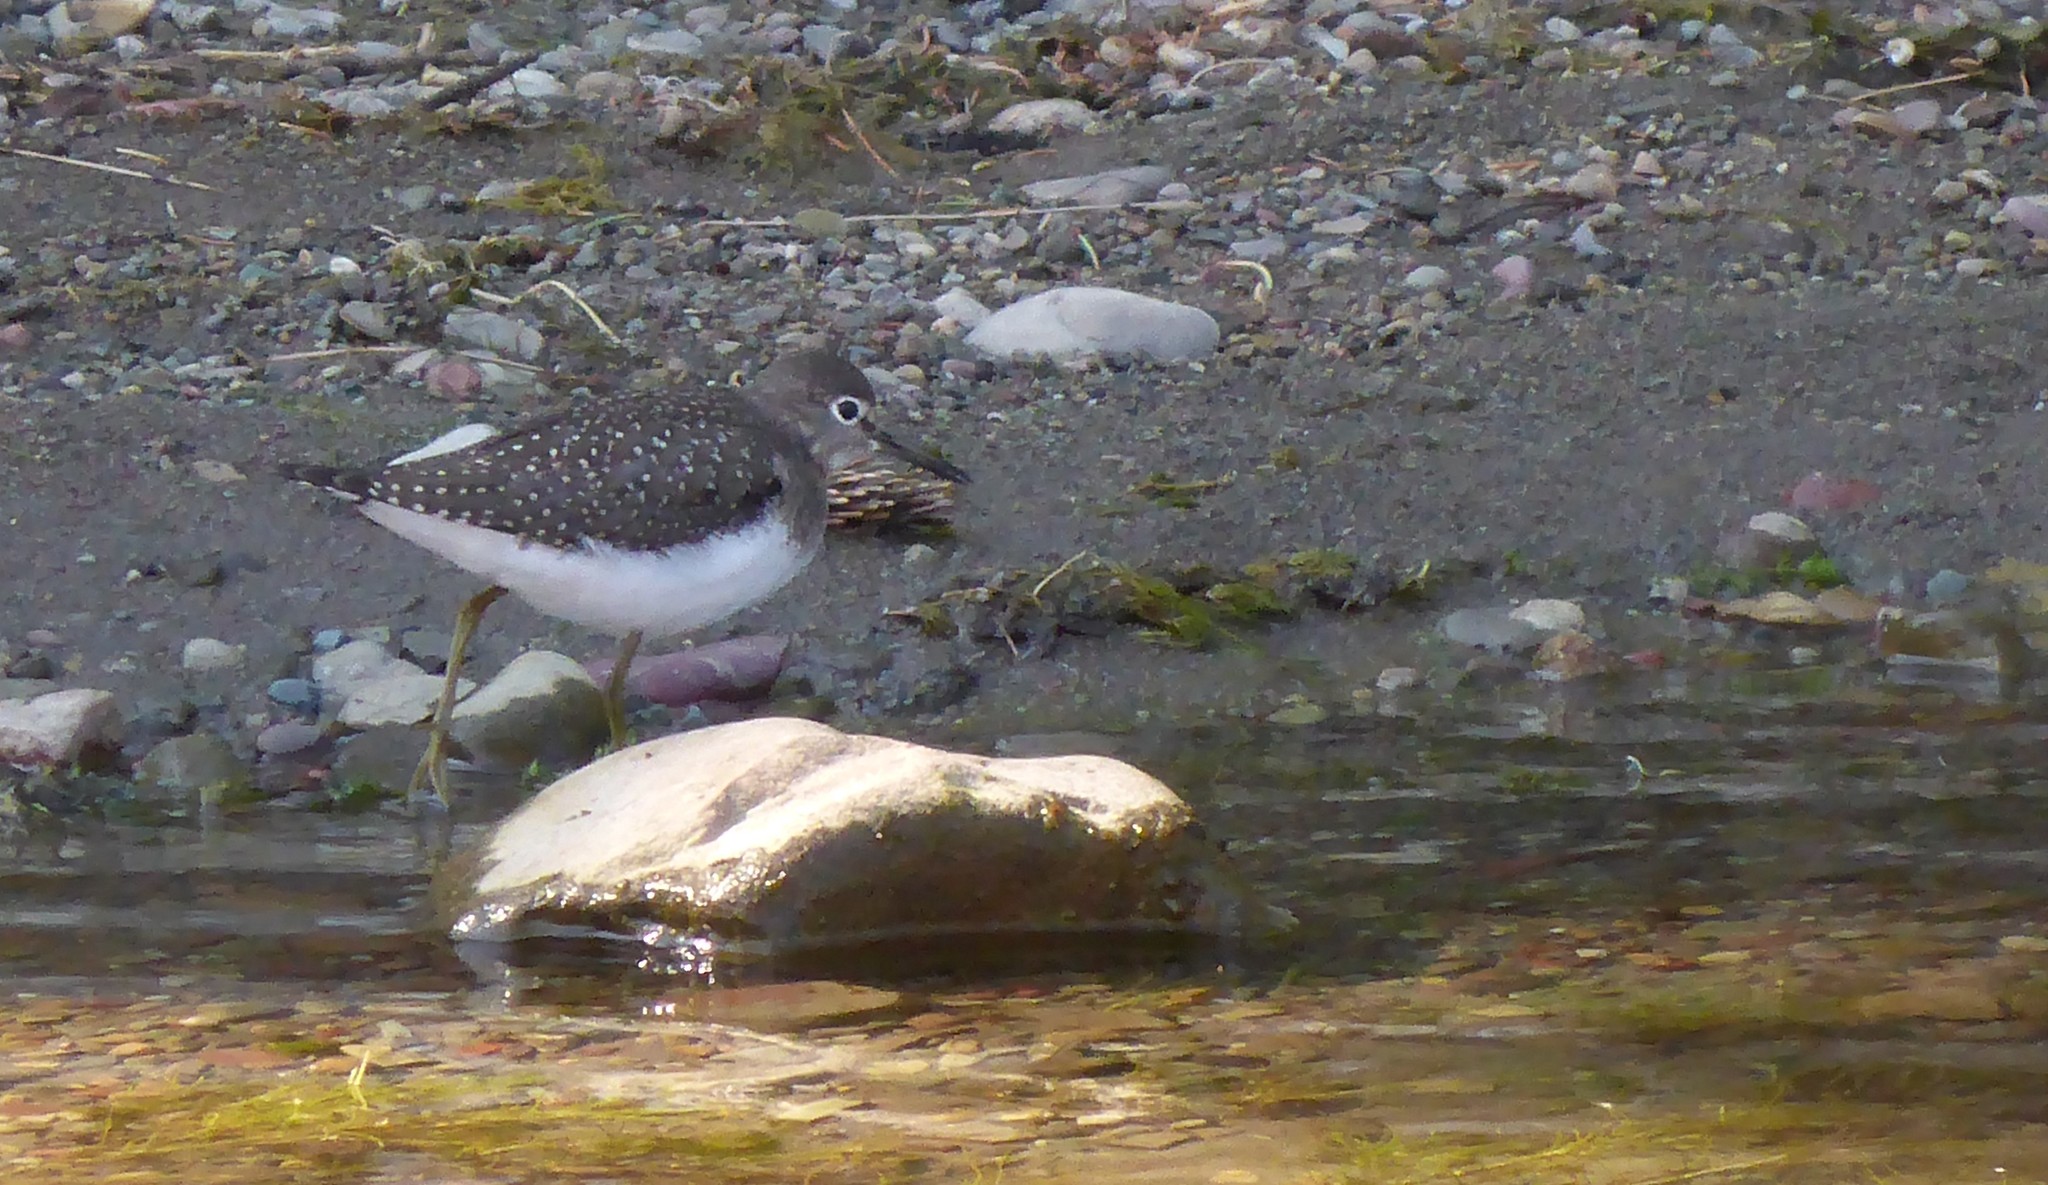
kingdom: Animalia
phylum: Chordata
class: Aves
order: Charadriiformes
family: Scolopacidae
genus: Tringa
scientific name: Tringa solitaria
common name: Solitary sandpiper
